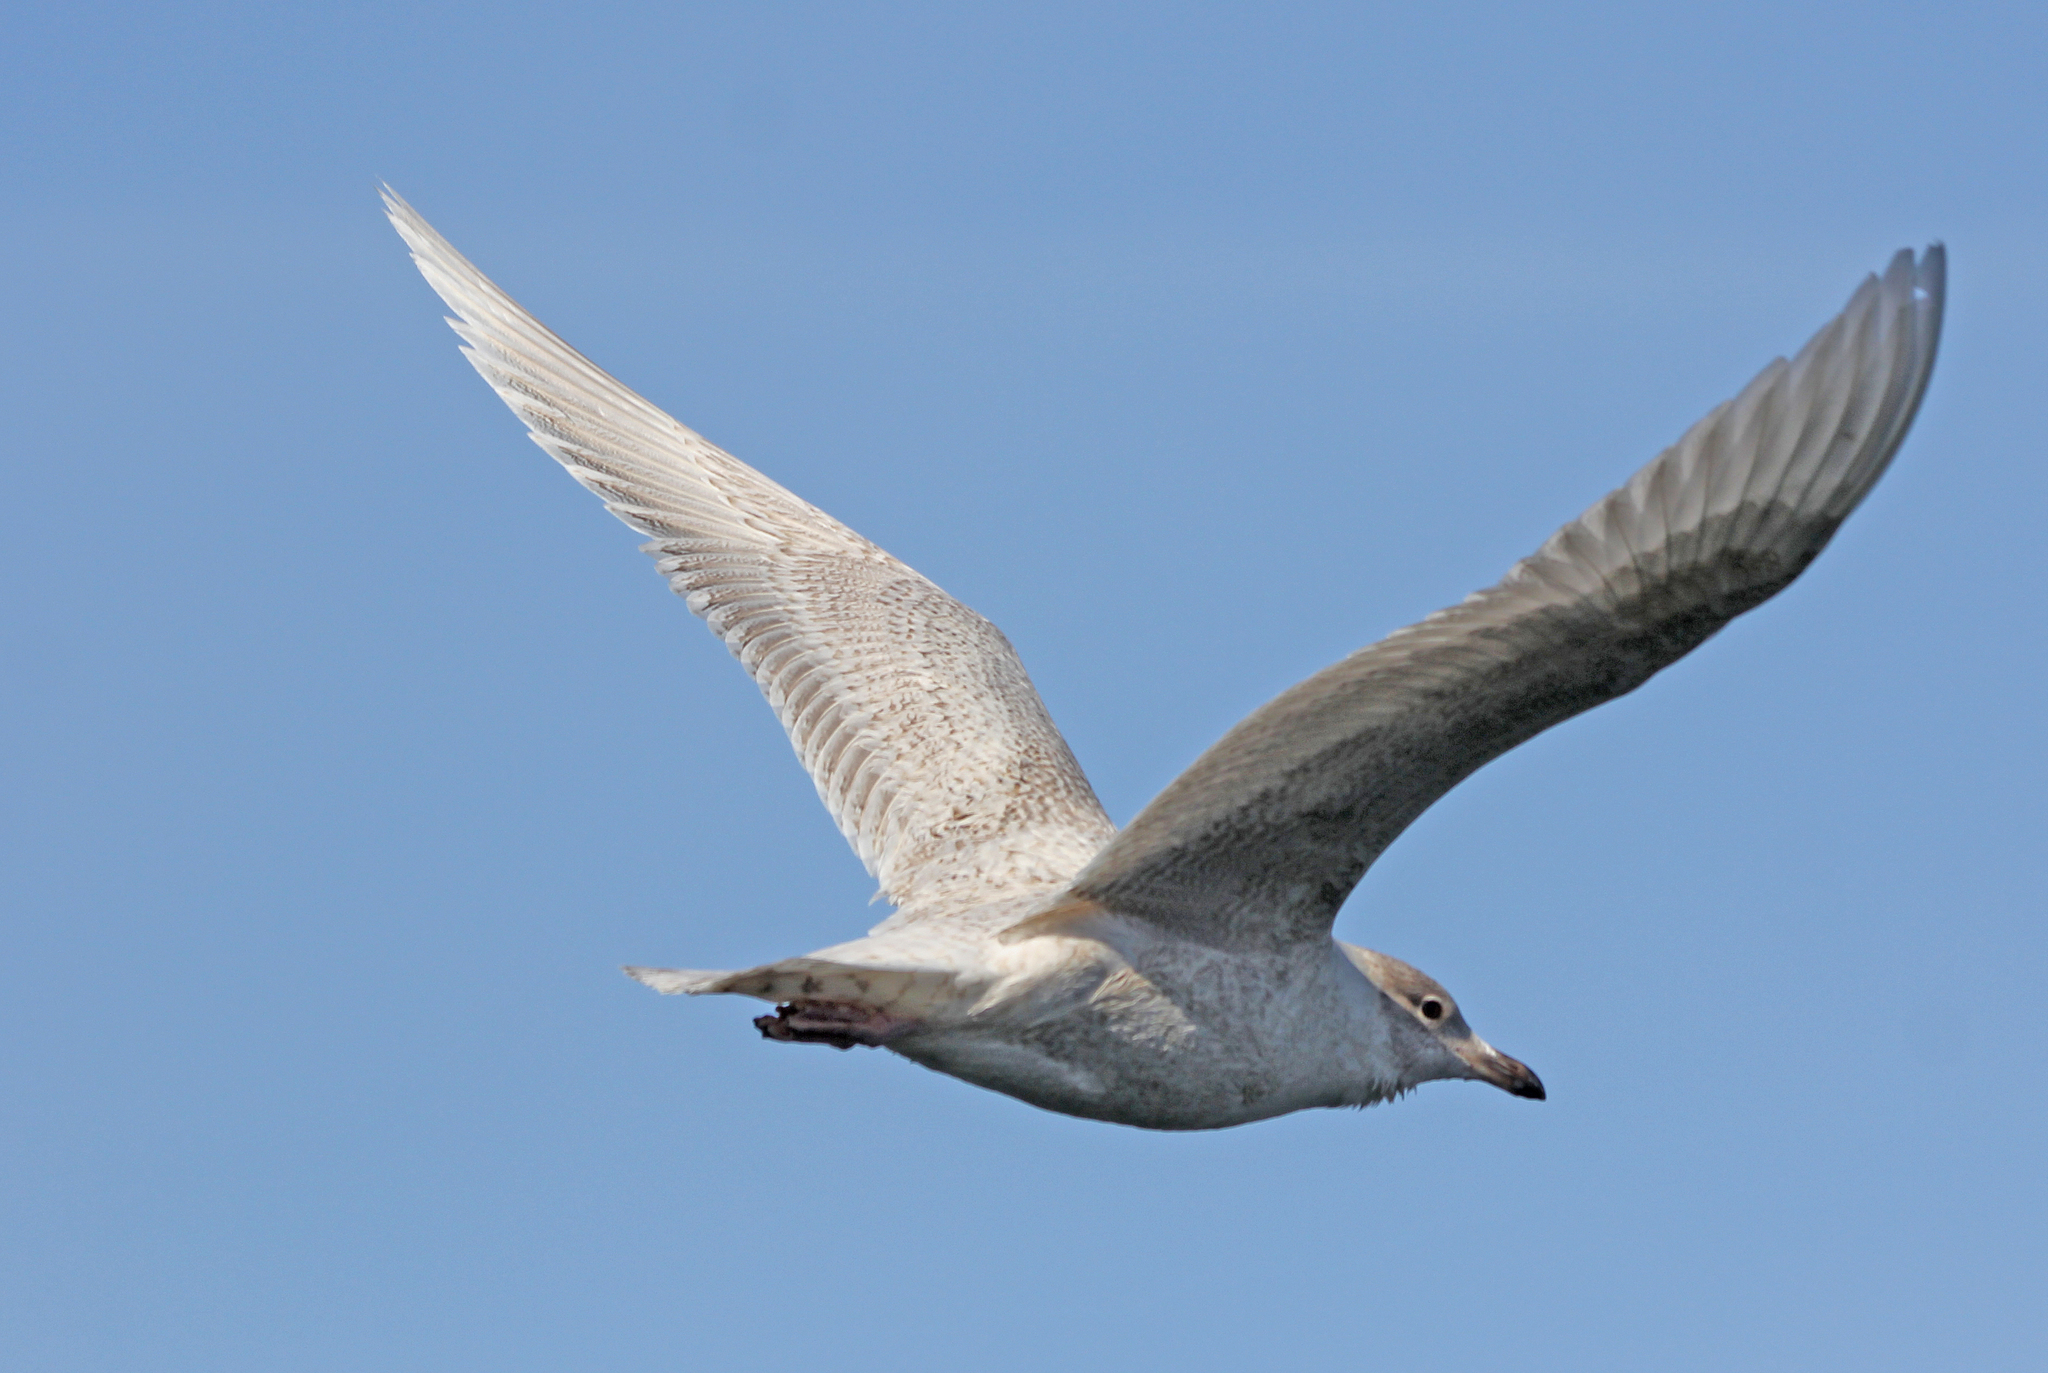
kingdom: Animalia
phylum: Chordata
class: Aves
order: Charadriiformes
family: Laridae
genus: Larus
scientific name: Larus glaucoides
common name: Iceland gull
